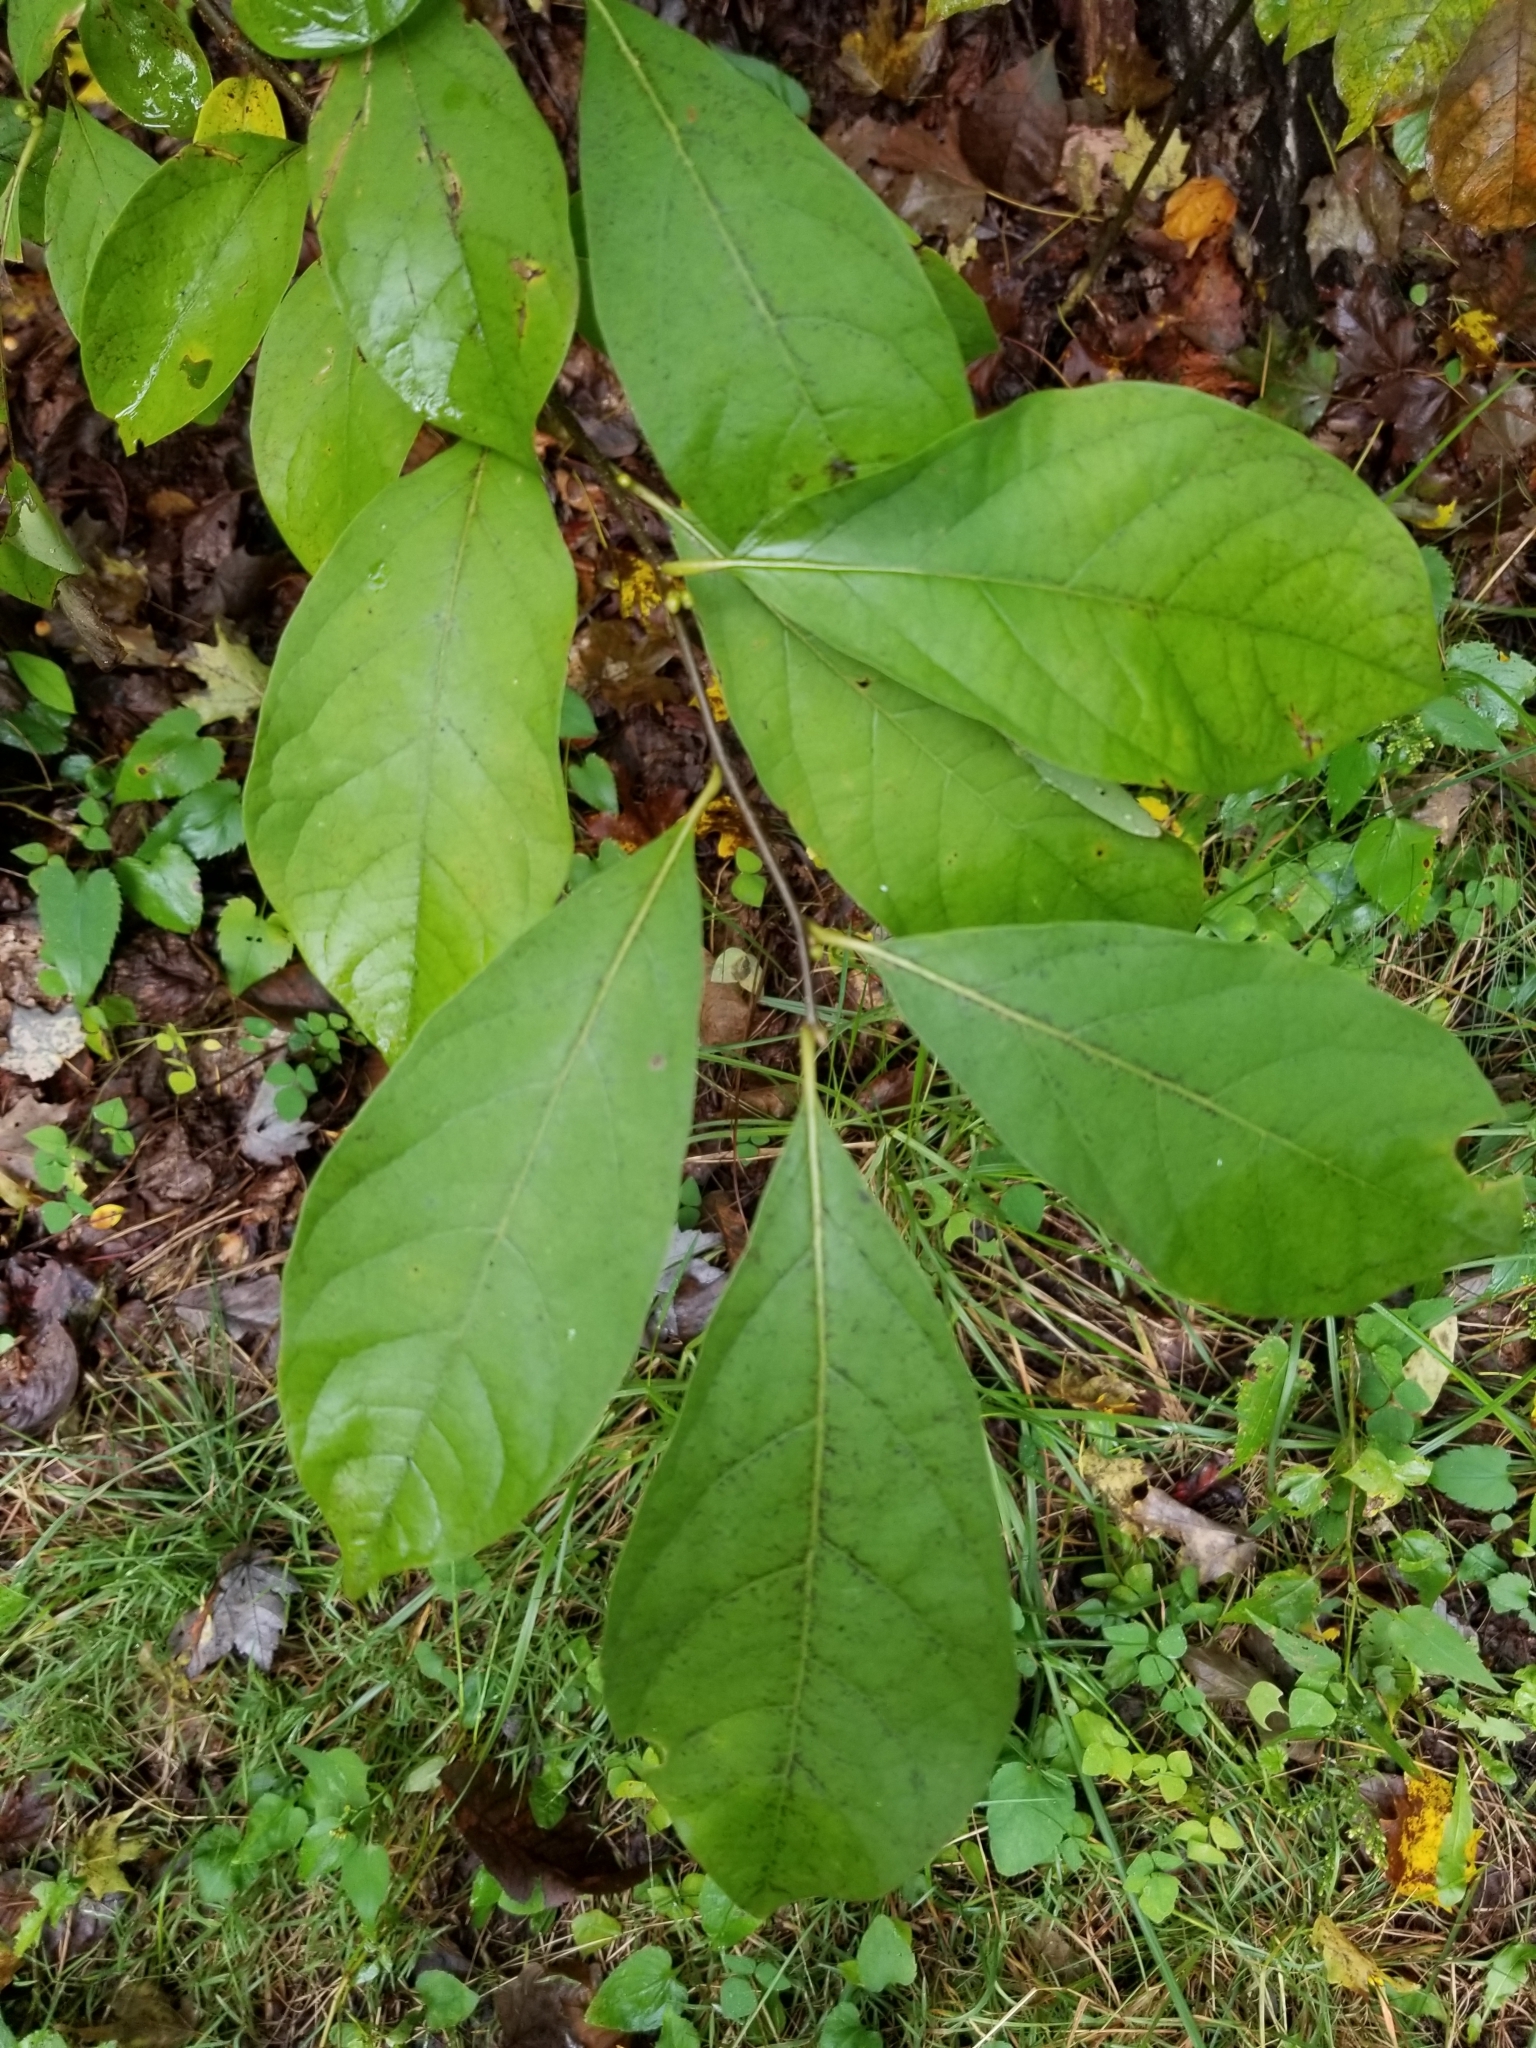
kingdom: Plantae
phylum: Tracheophyta
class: Magnoliopsida
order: Laurales
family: Lauraceae
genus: Lindera
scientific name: Lindera benzoin
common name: Spicebush
